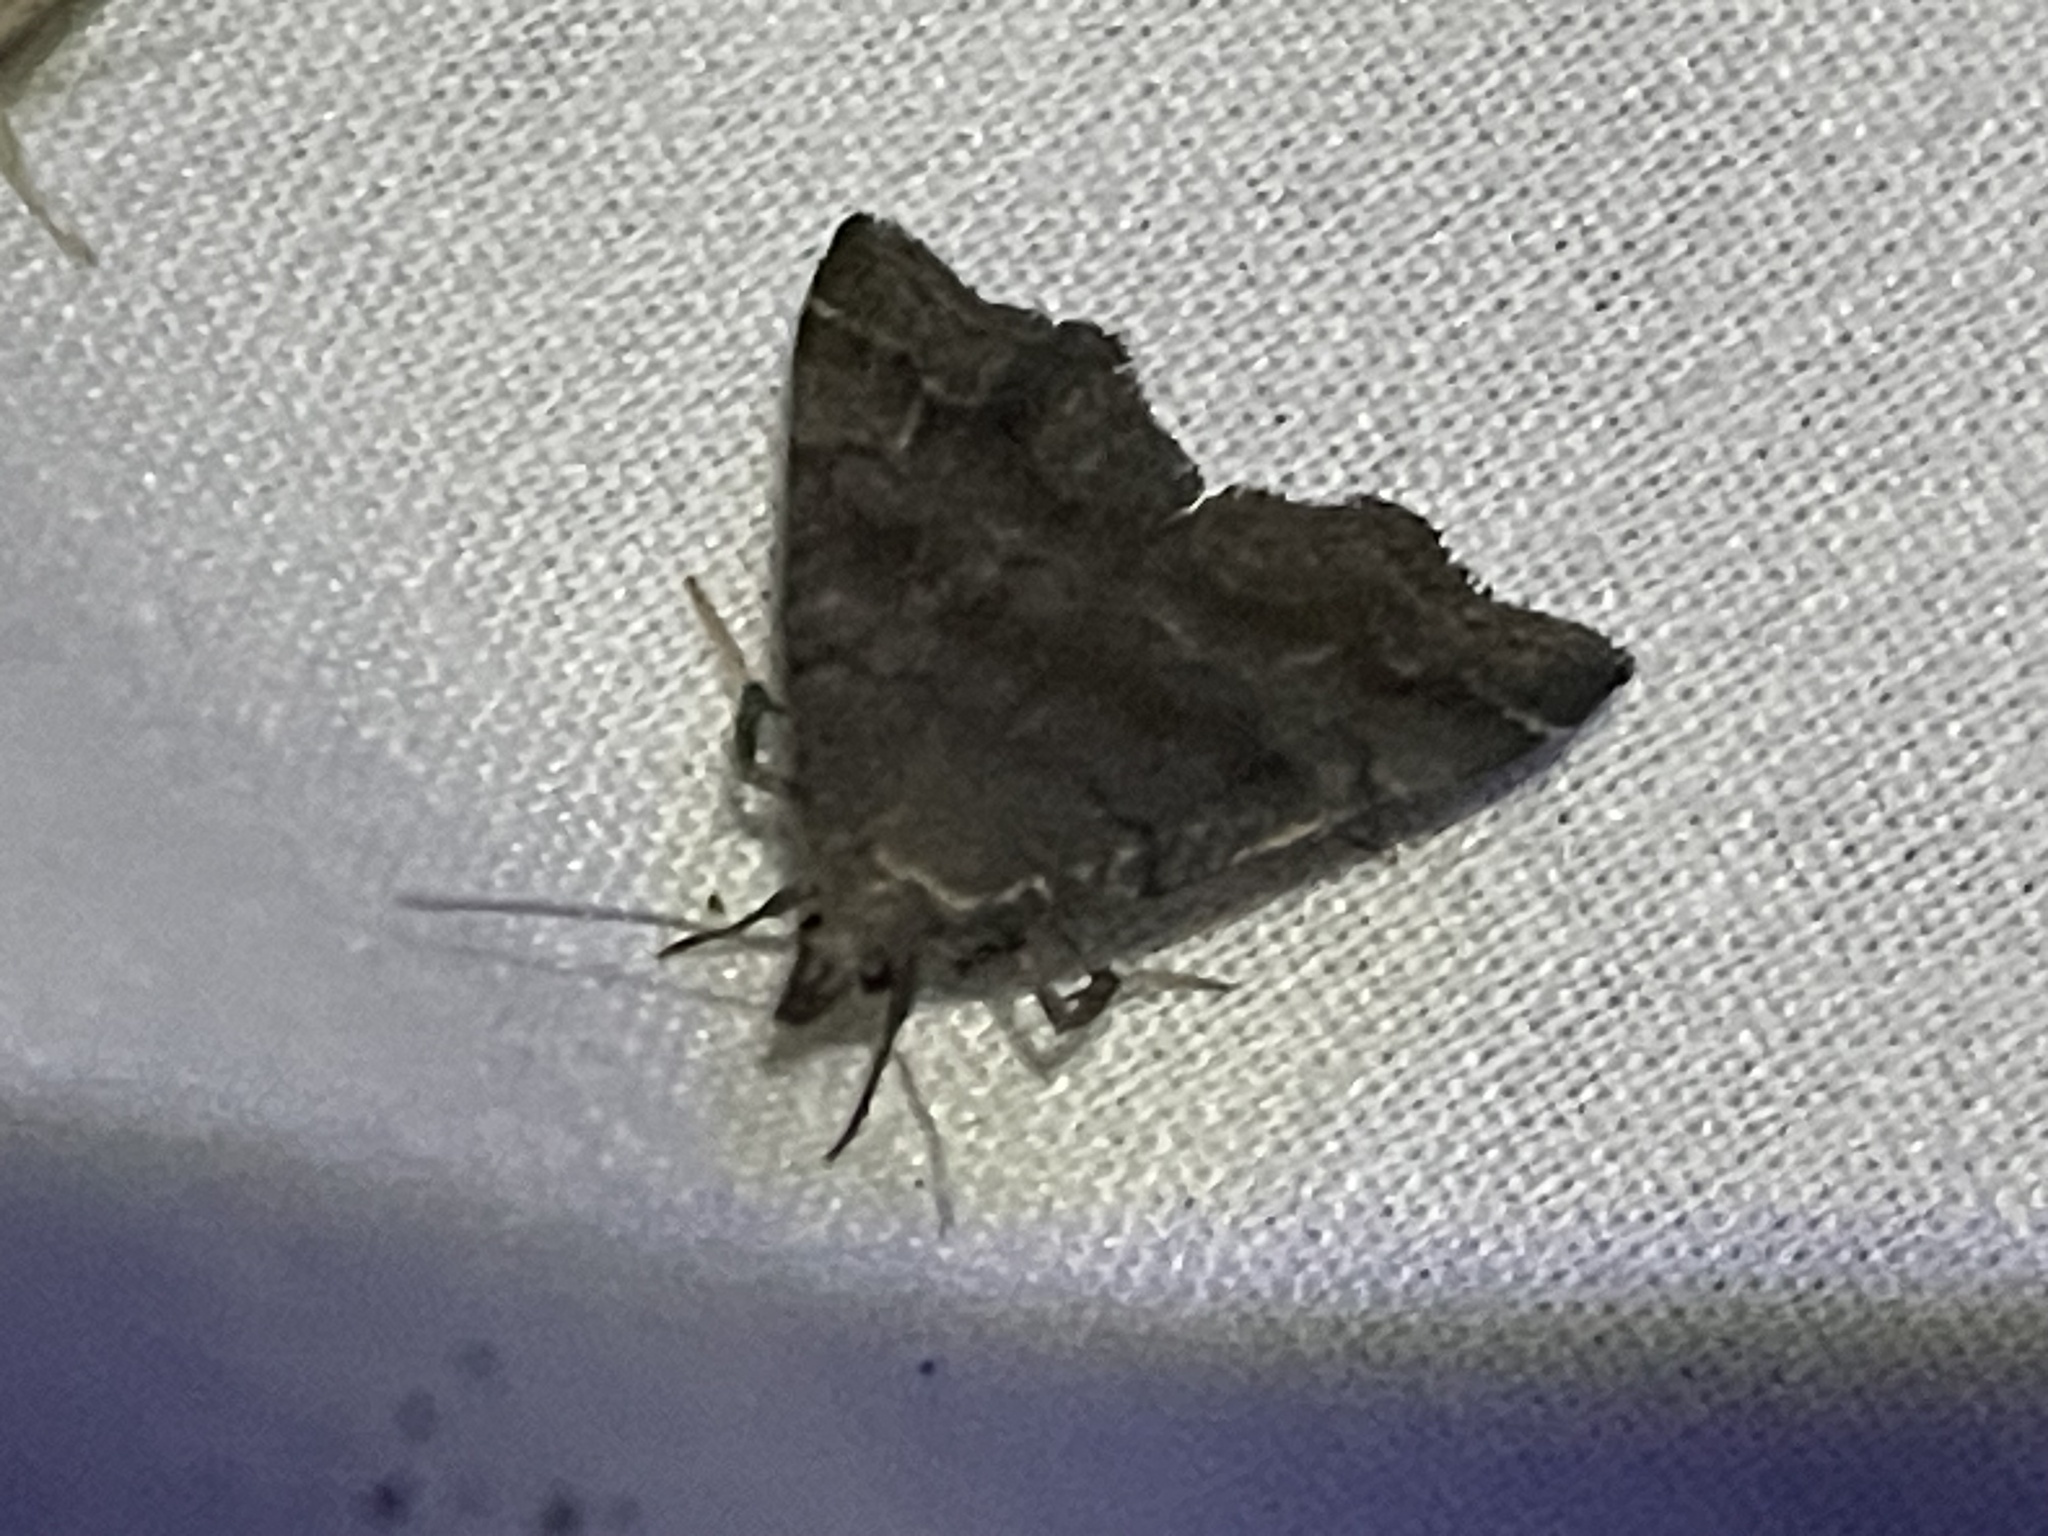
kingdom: Animalia
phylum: Arthropoda
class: Insecta
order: Lepidoptera
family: Erebidae
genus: Phalaenostola
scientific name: Phalaenostola larentioides
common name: Black-banded owlet
